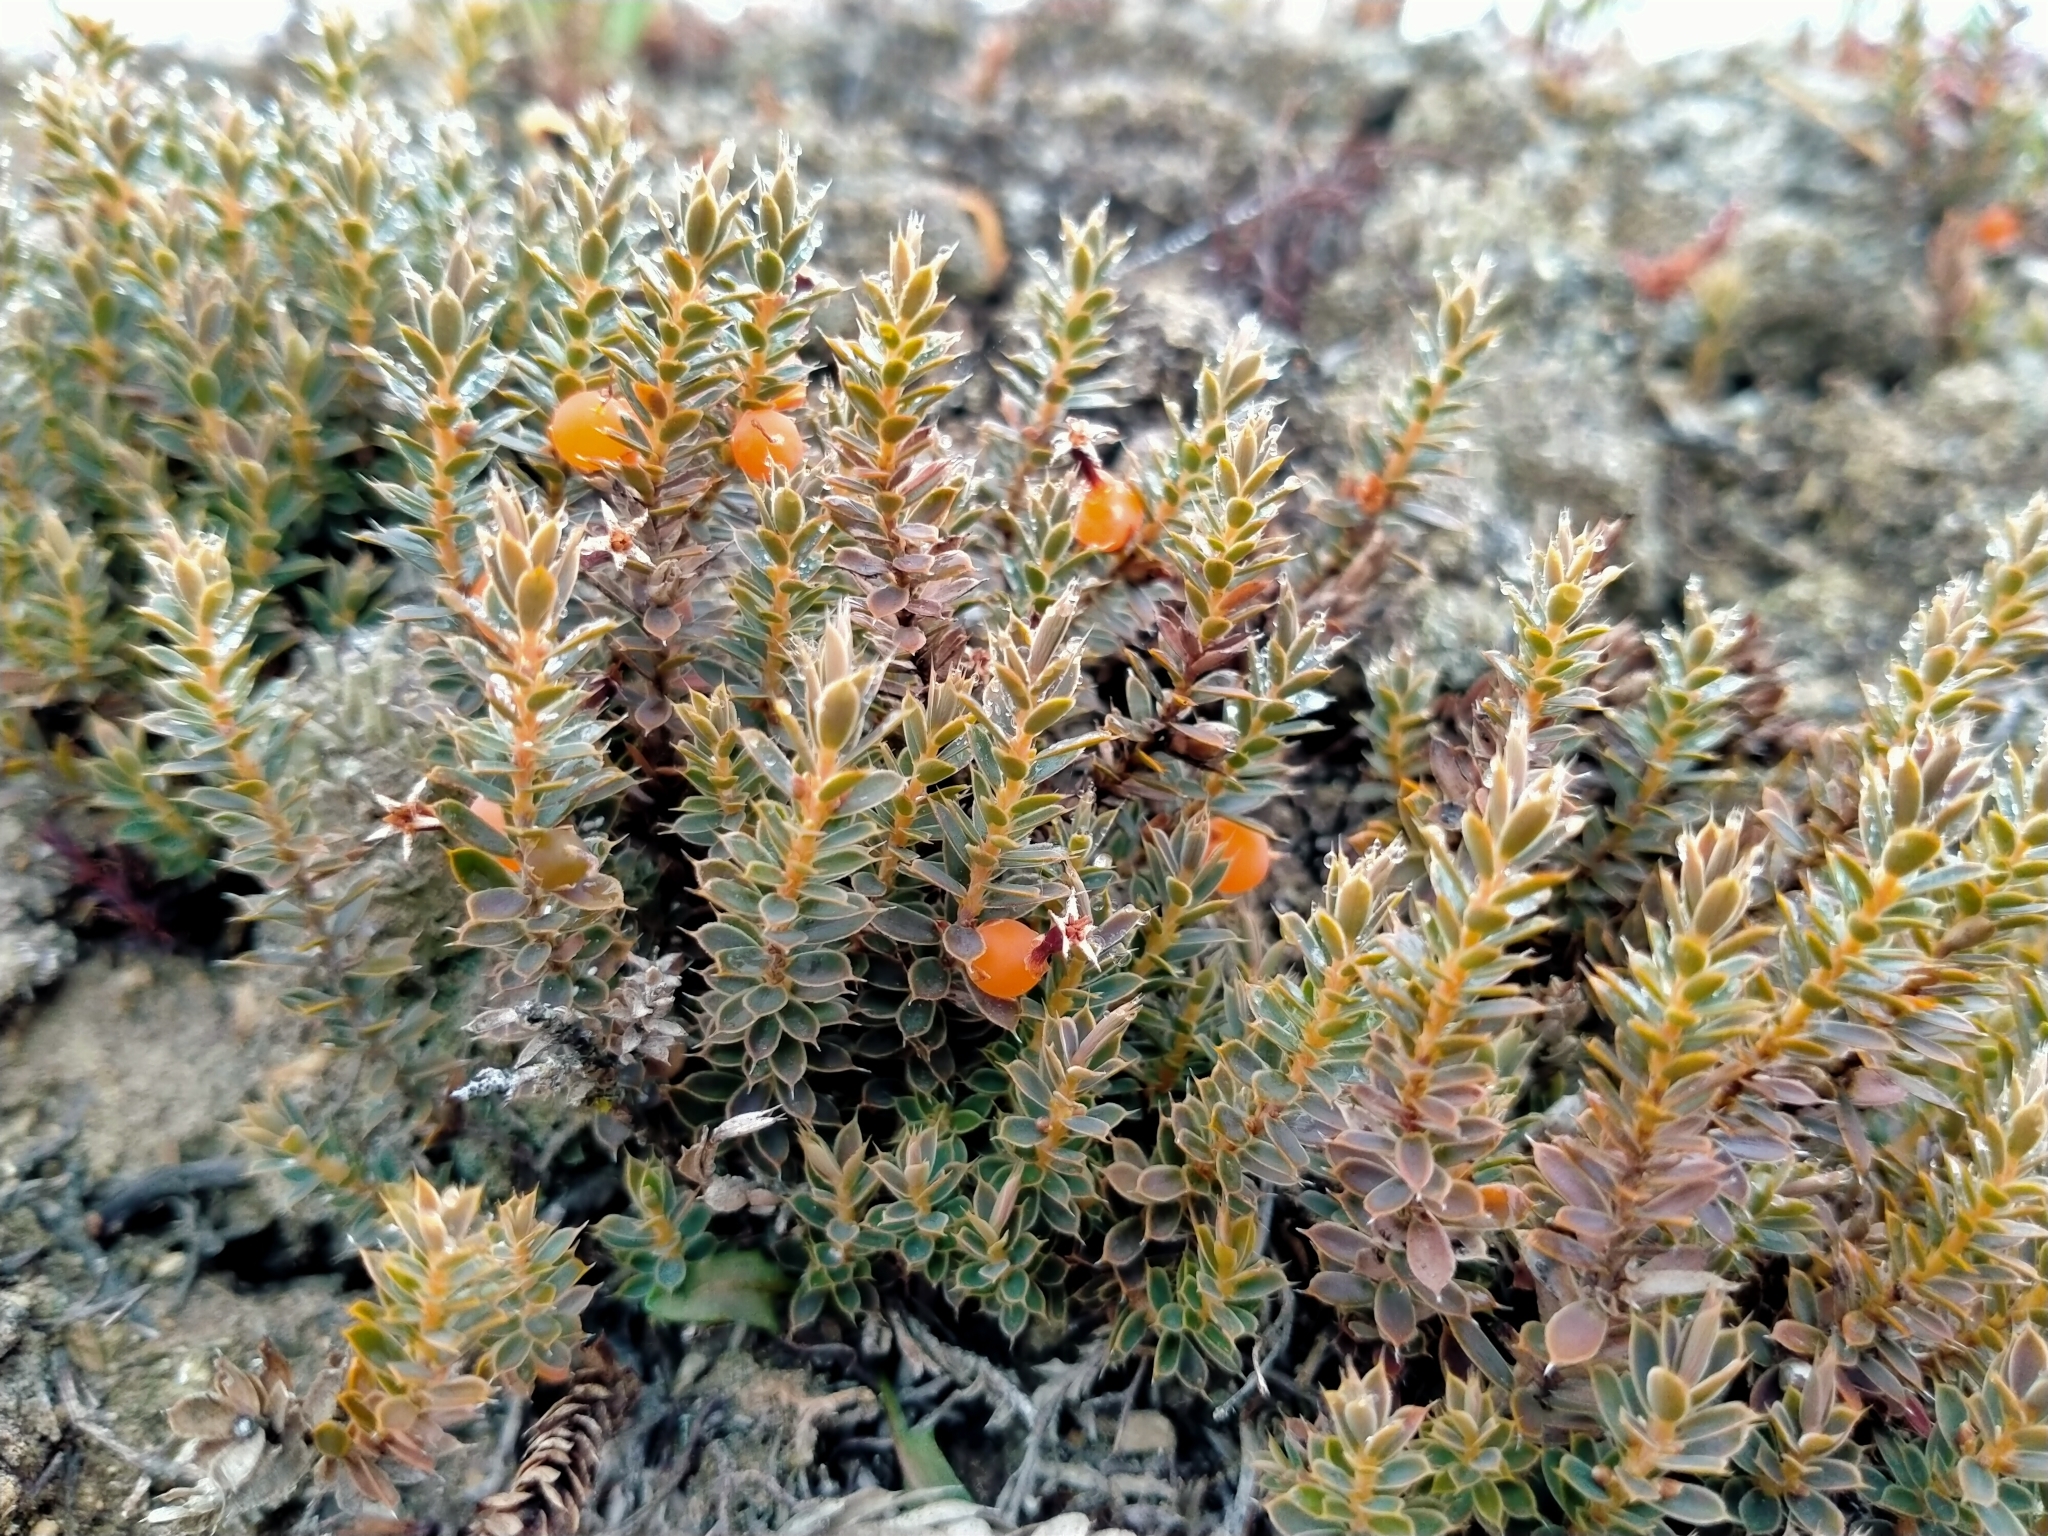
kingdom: Plantae
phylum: Tracheophyta
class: Magnoliopsida
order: Ericales
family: Ericaceae
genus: Styphelia
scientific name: Styphelia nesophila
